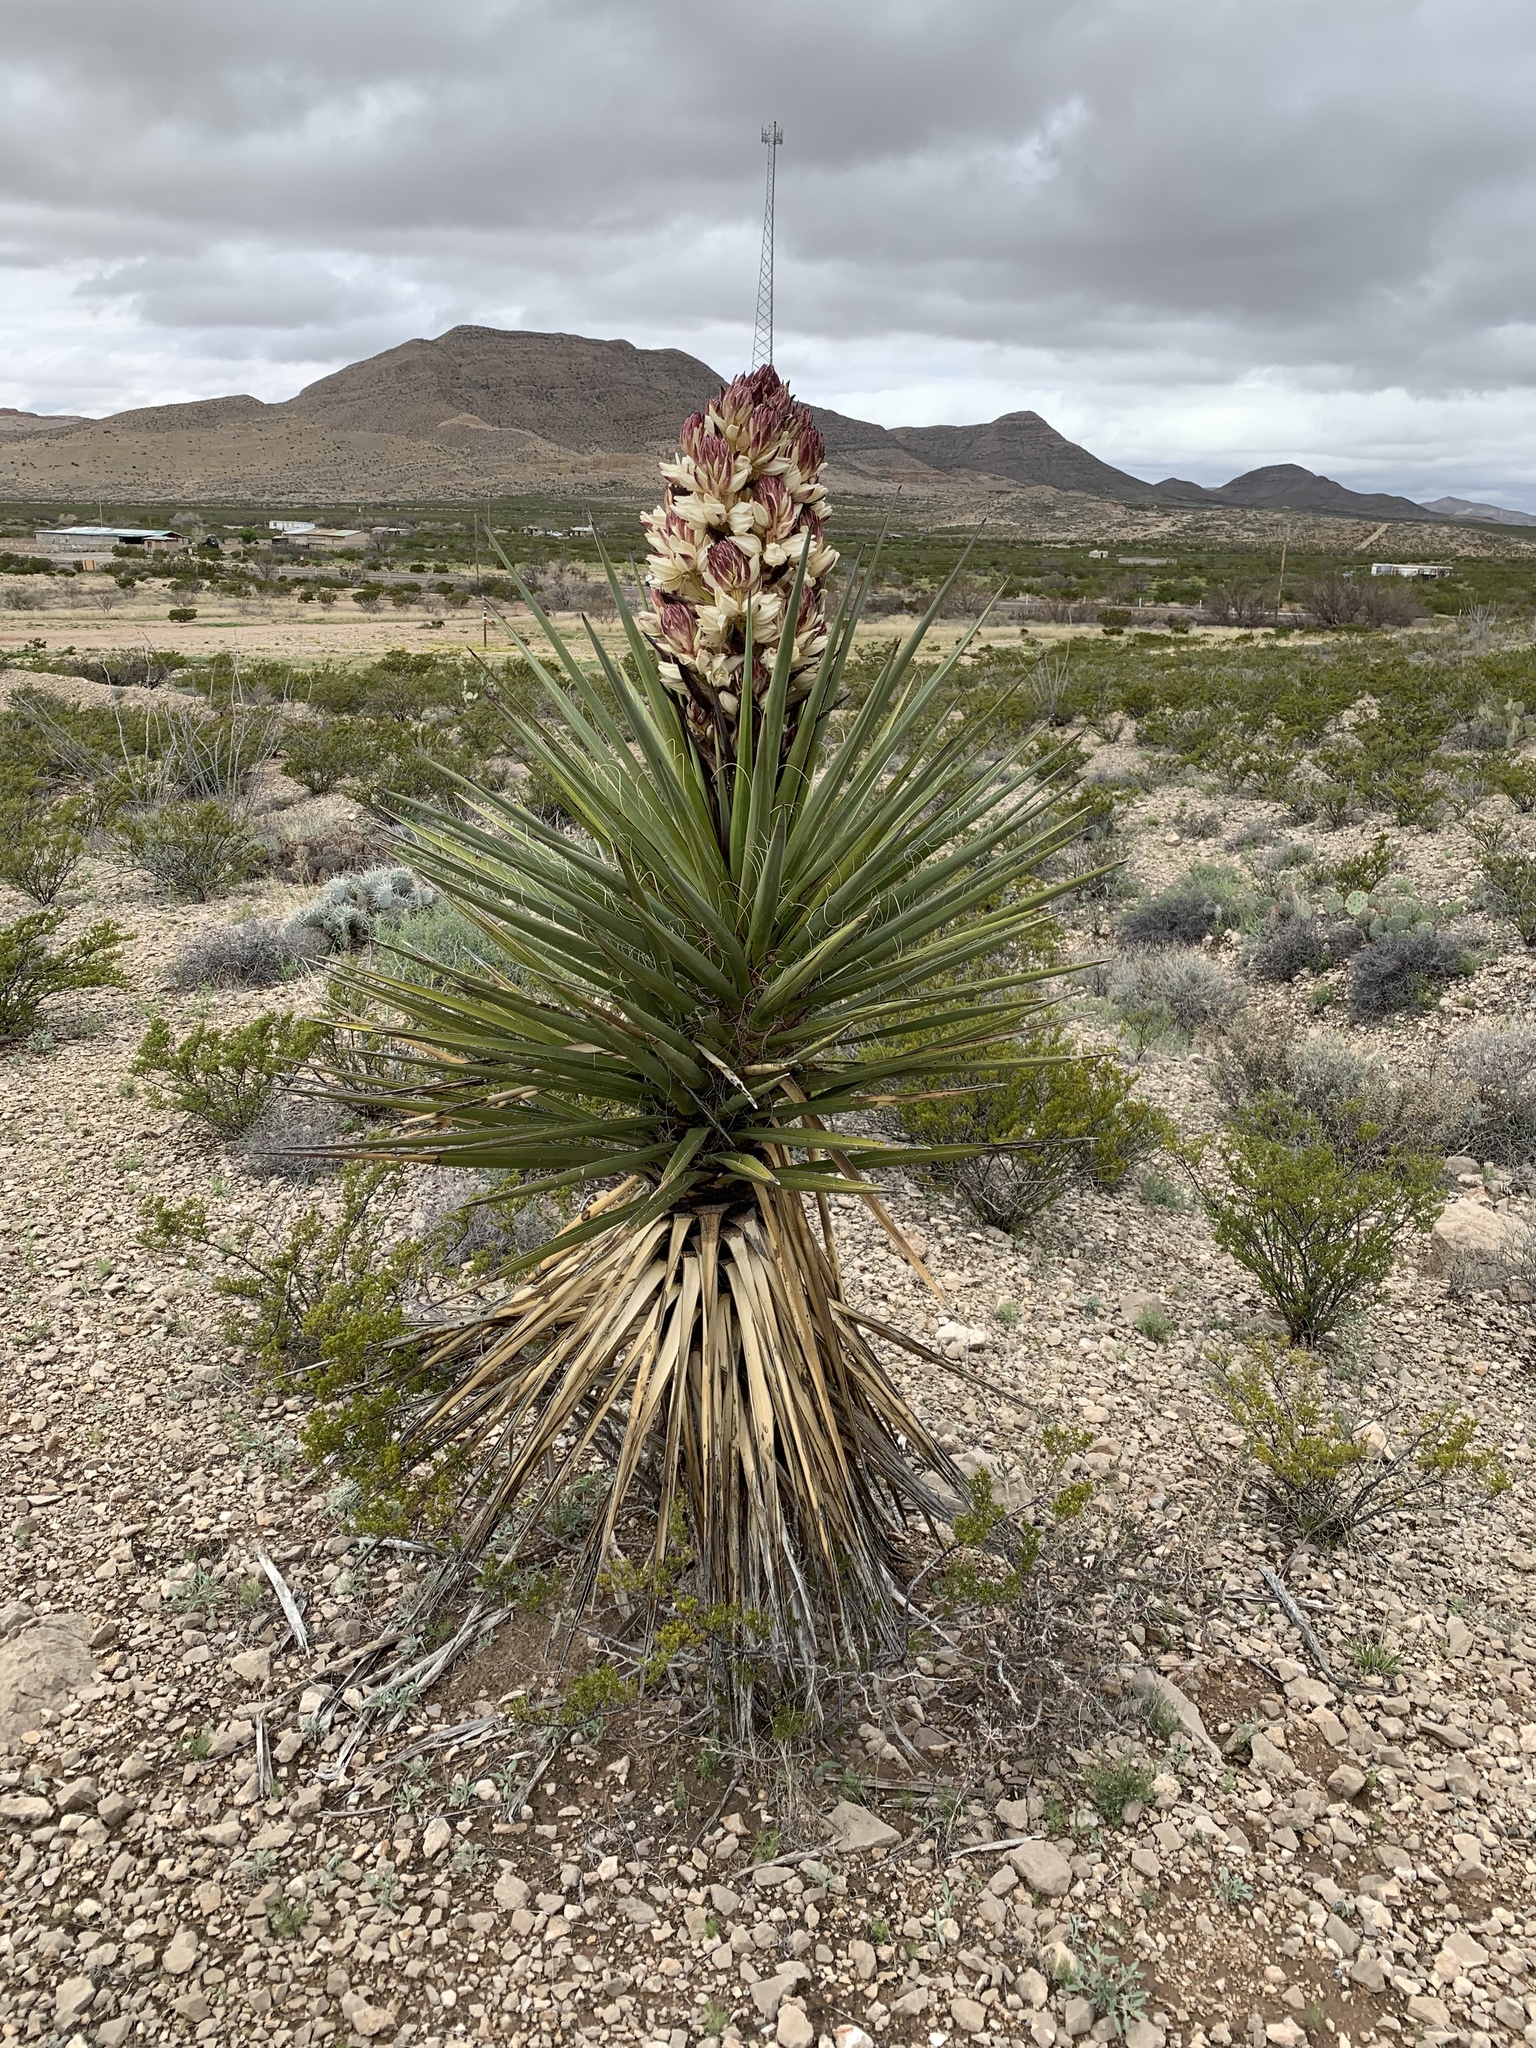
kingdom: Plantae
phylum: Tracheophyta
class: Liliopsida
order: Asparagales
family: Asparagaceae
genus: Yucca
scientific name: Yucca treculiana
